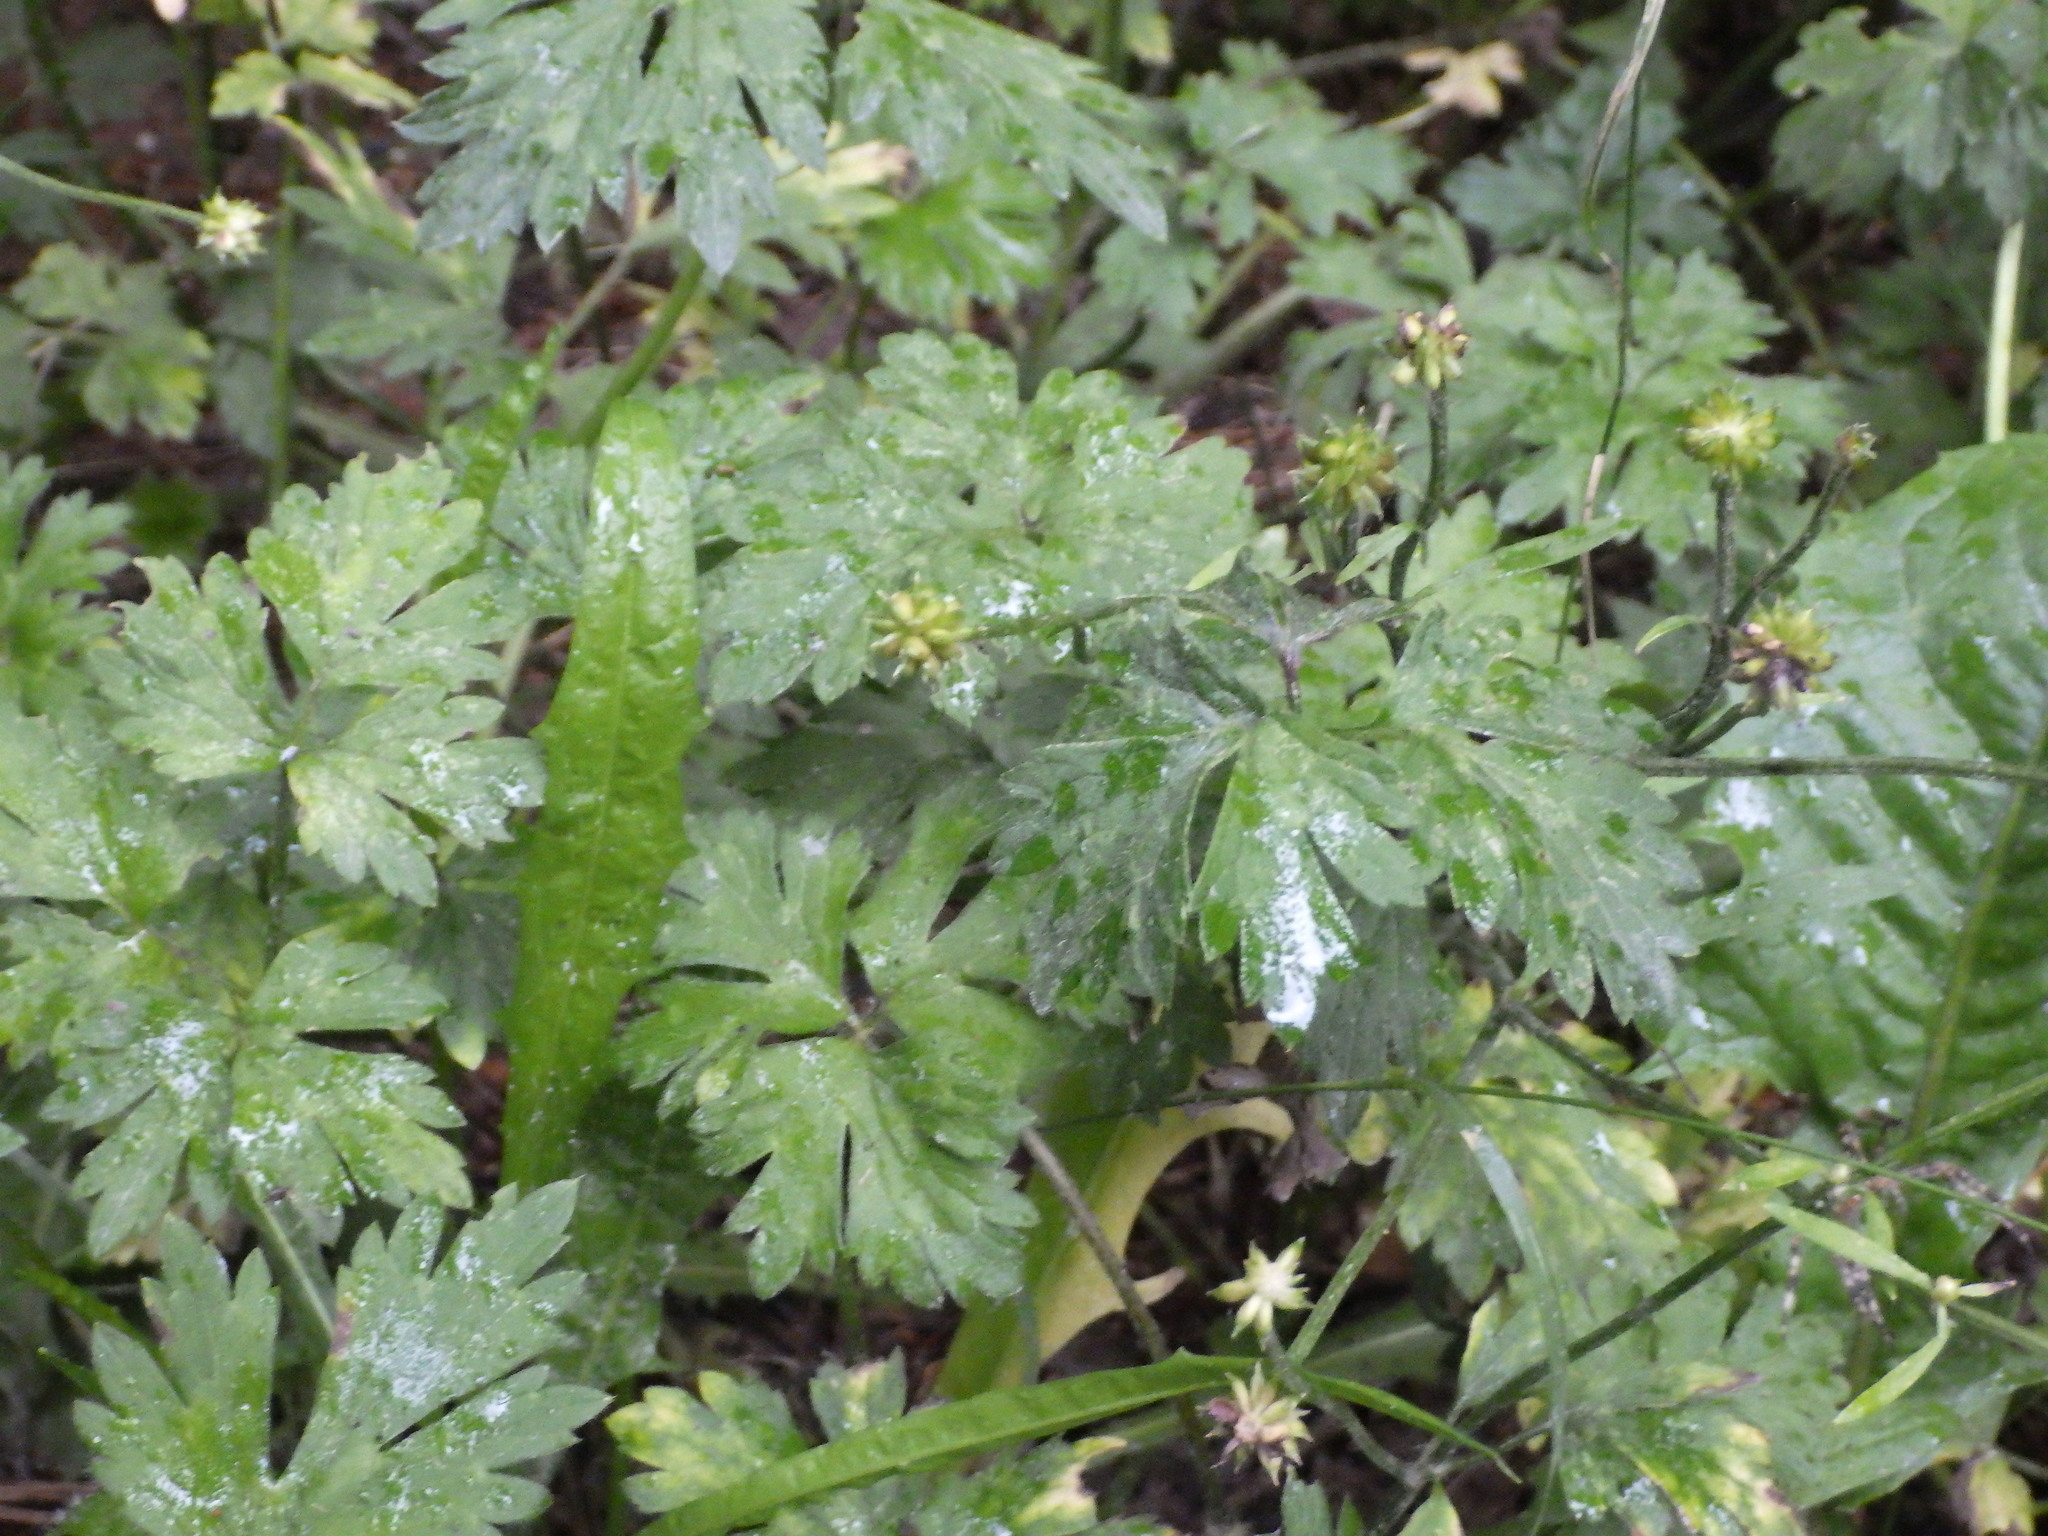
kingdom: Plantae
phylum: Tracheophyta
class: Magnoliopsida
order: Ranunculales
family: Ranunculaceae
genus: Ranunculus
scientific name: Ranunculus repens
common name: Creeping buttercup
